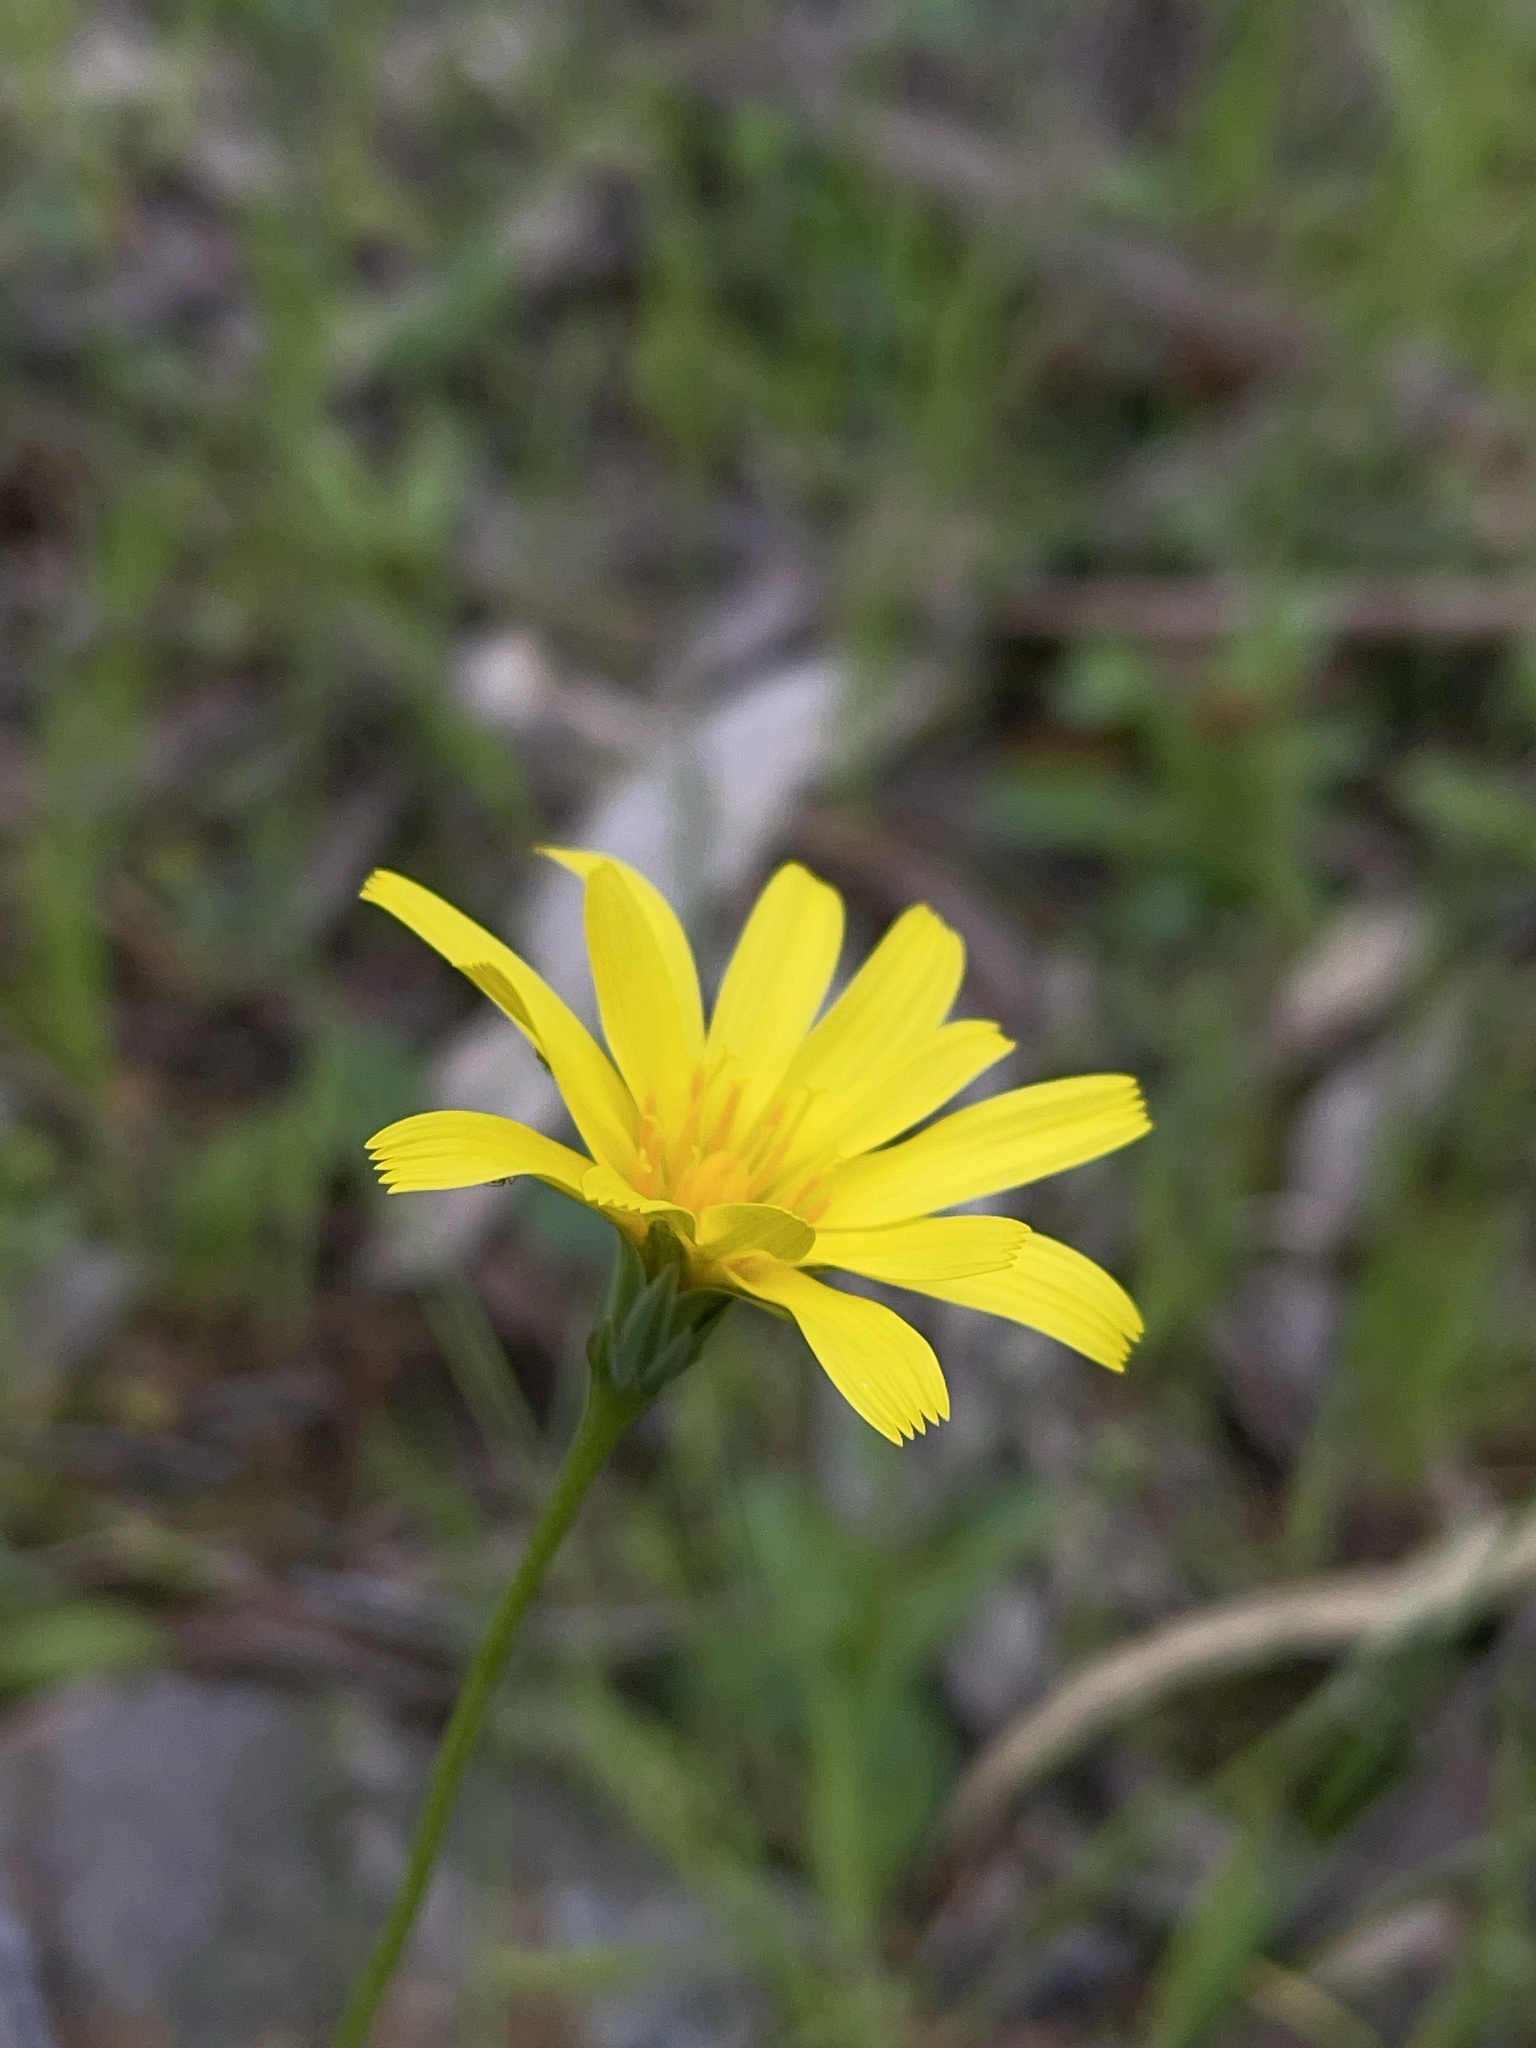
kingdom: Plantae
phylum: Tracheophyta
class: Magnoliopsida
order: Asterales
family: Asteraceae
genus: Microseris
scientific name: Microseris lanceolata
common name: Yam daisy
